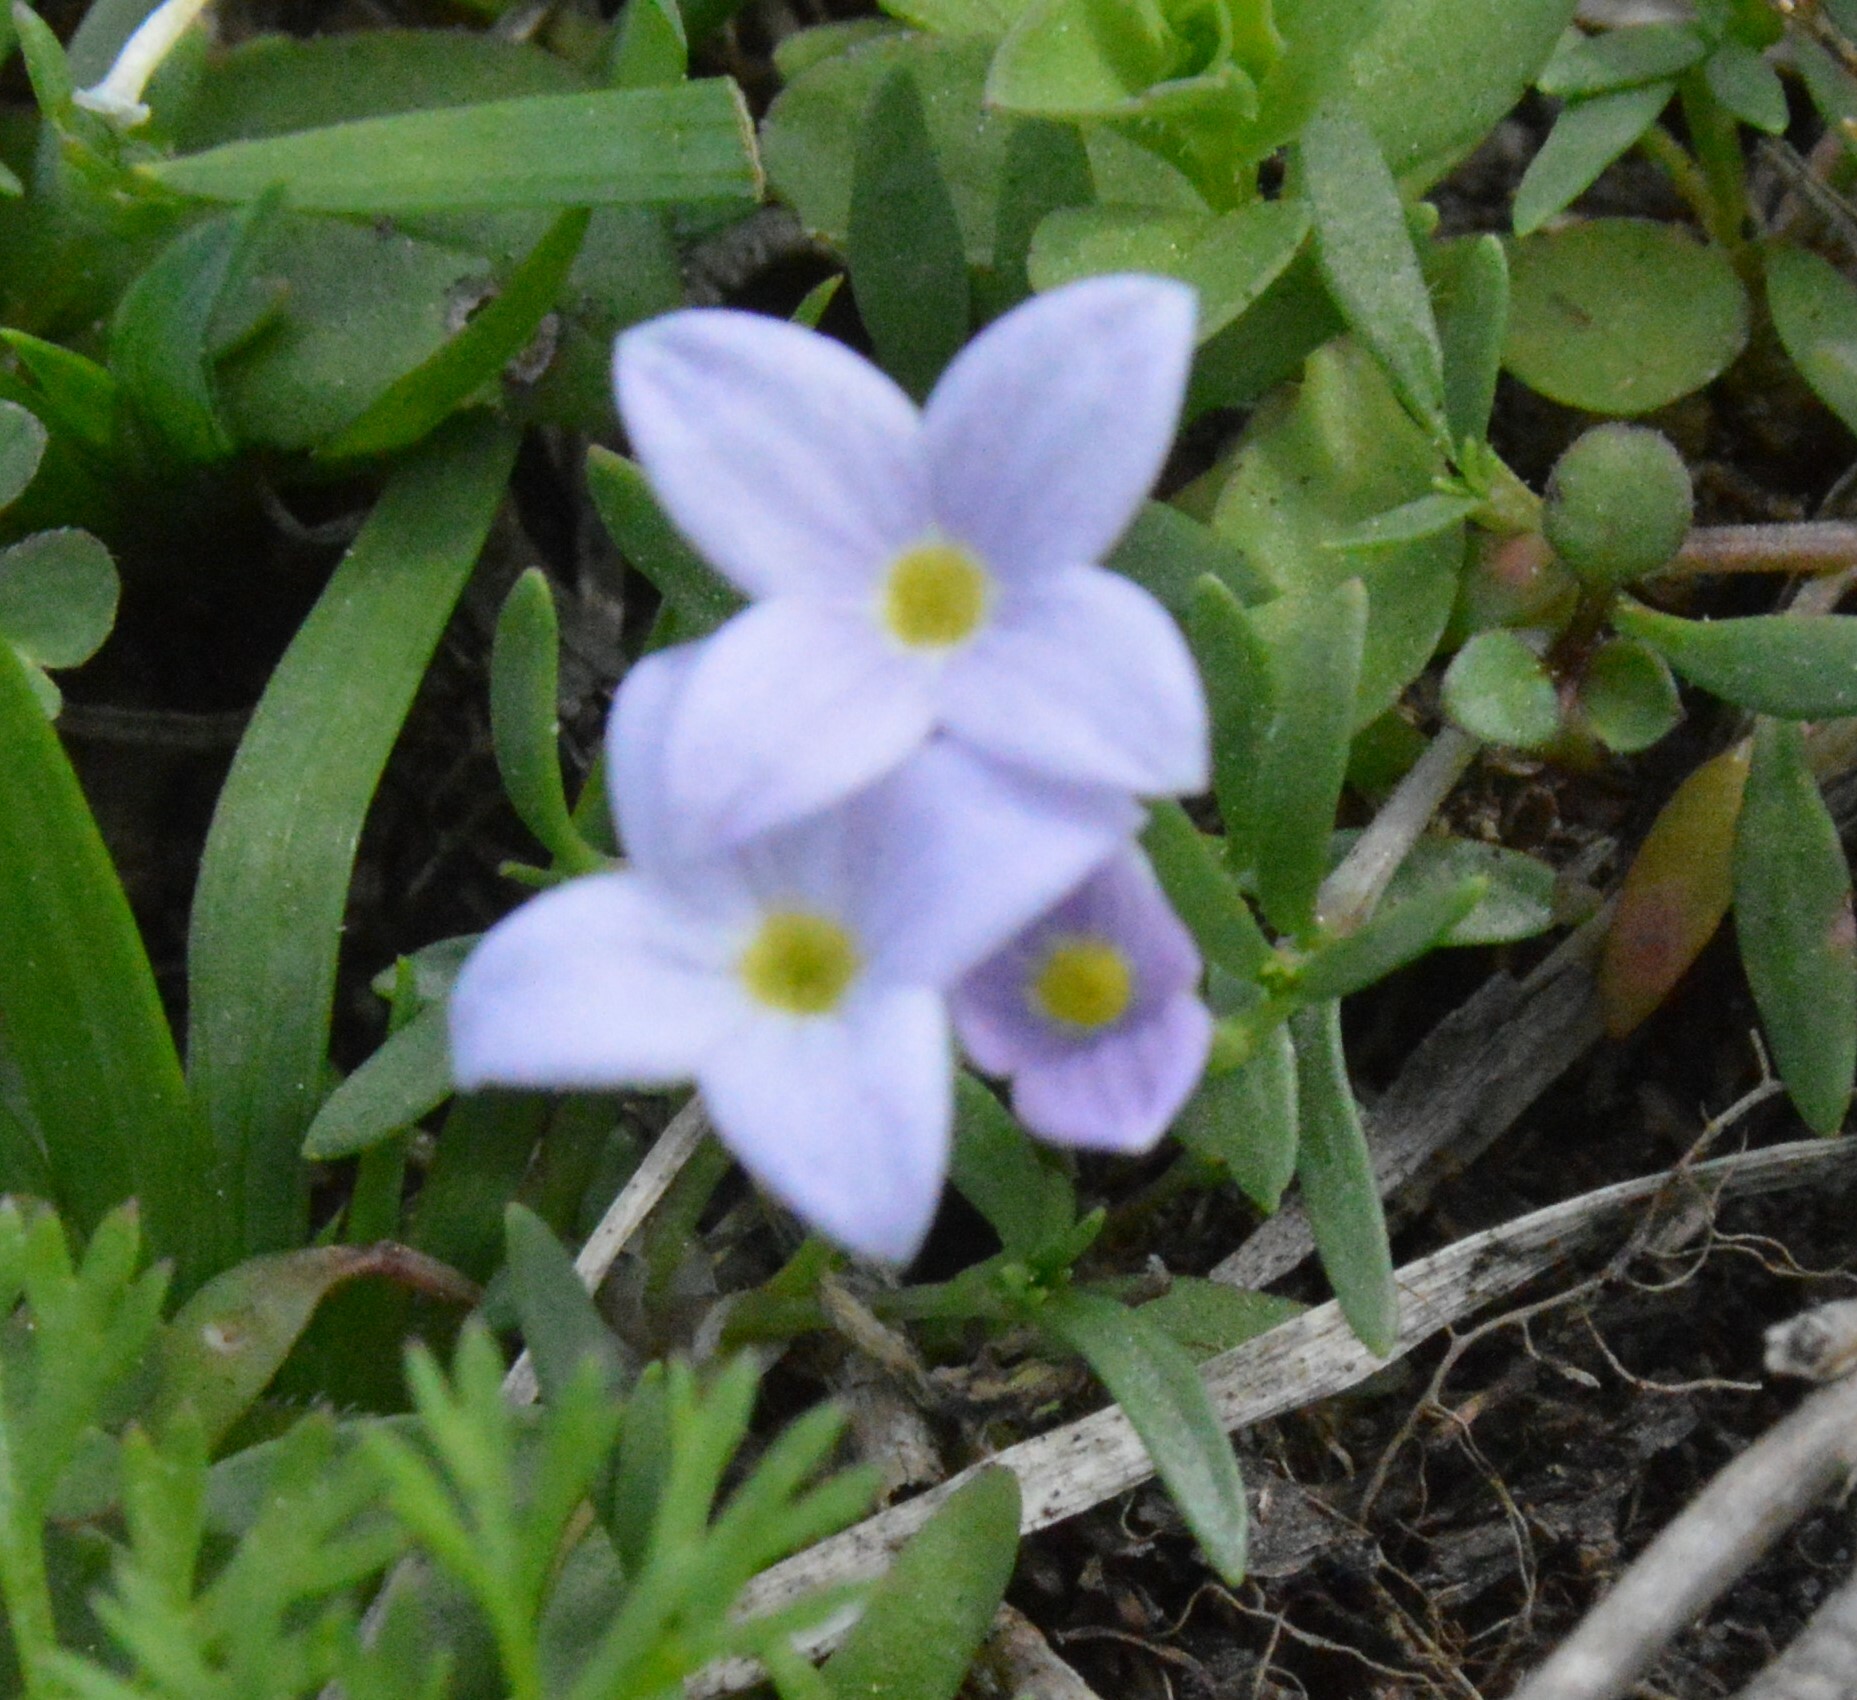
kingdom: Plantae
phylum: Tracheophyta
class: Magnoliopsida
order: Gentianales
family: Rubiaceae
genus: Houstonia
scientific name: Houstonia rosea
